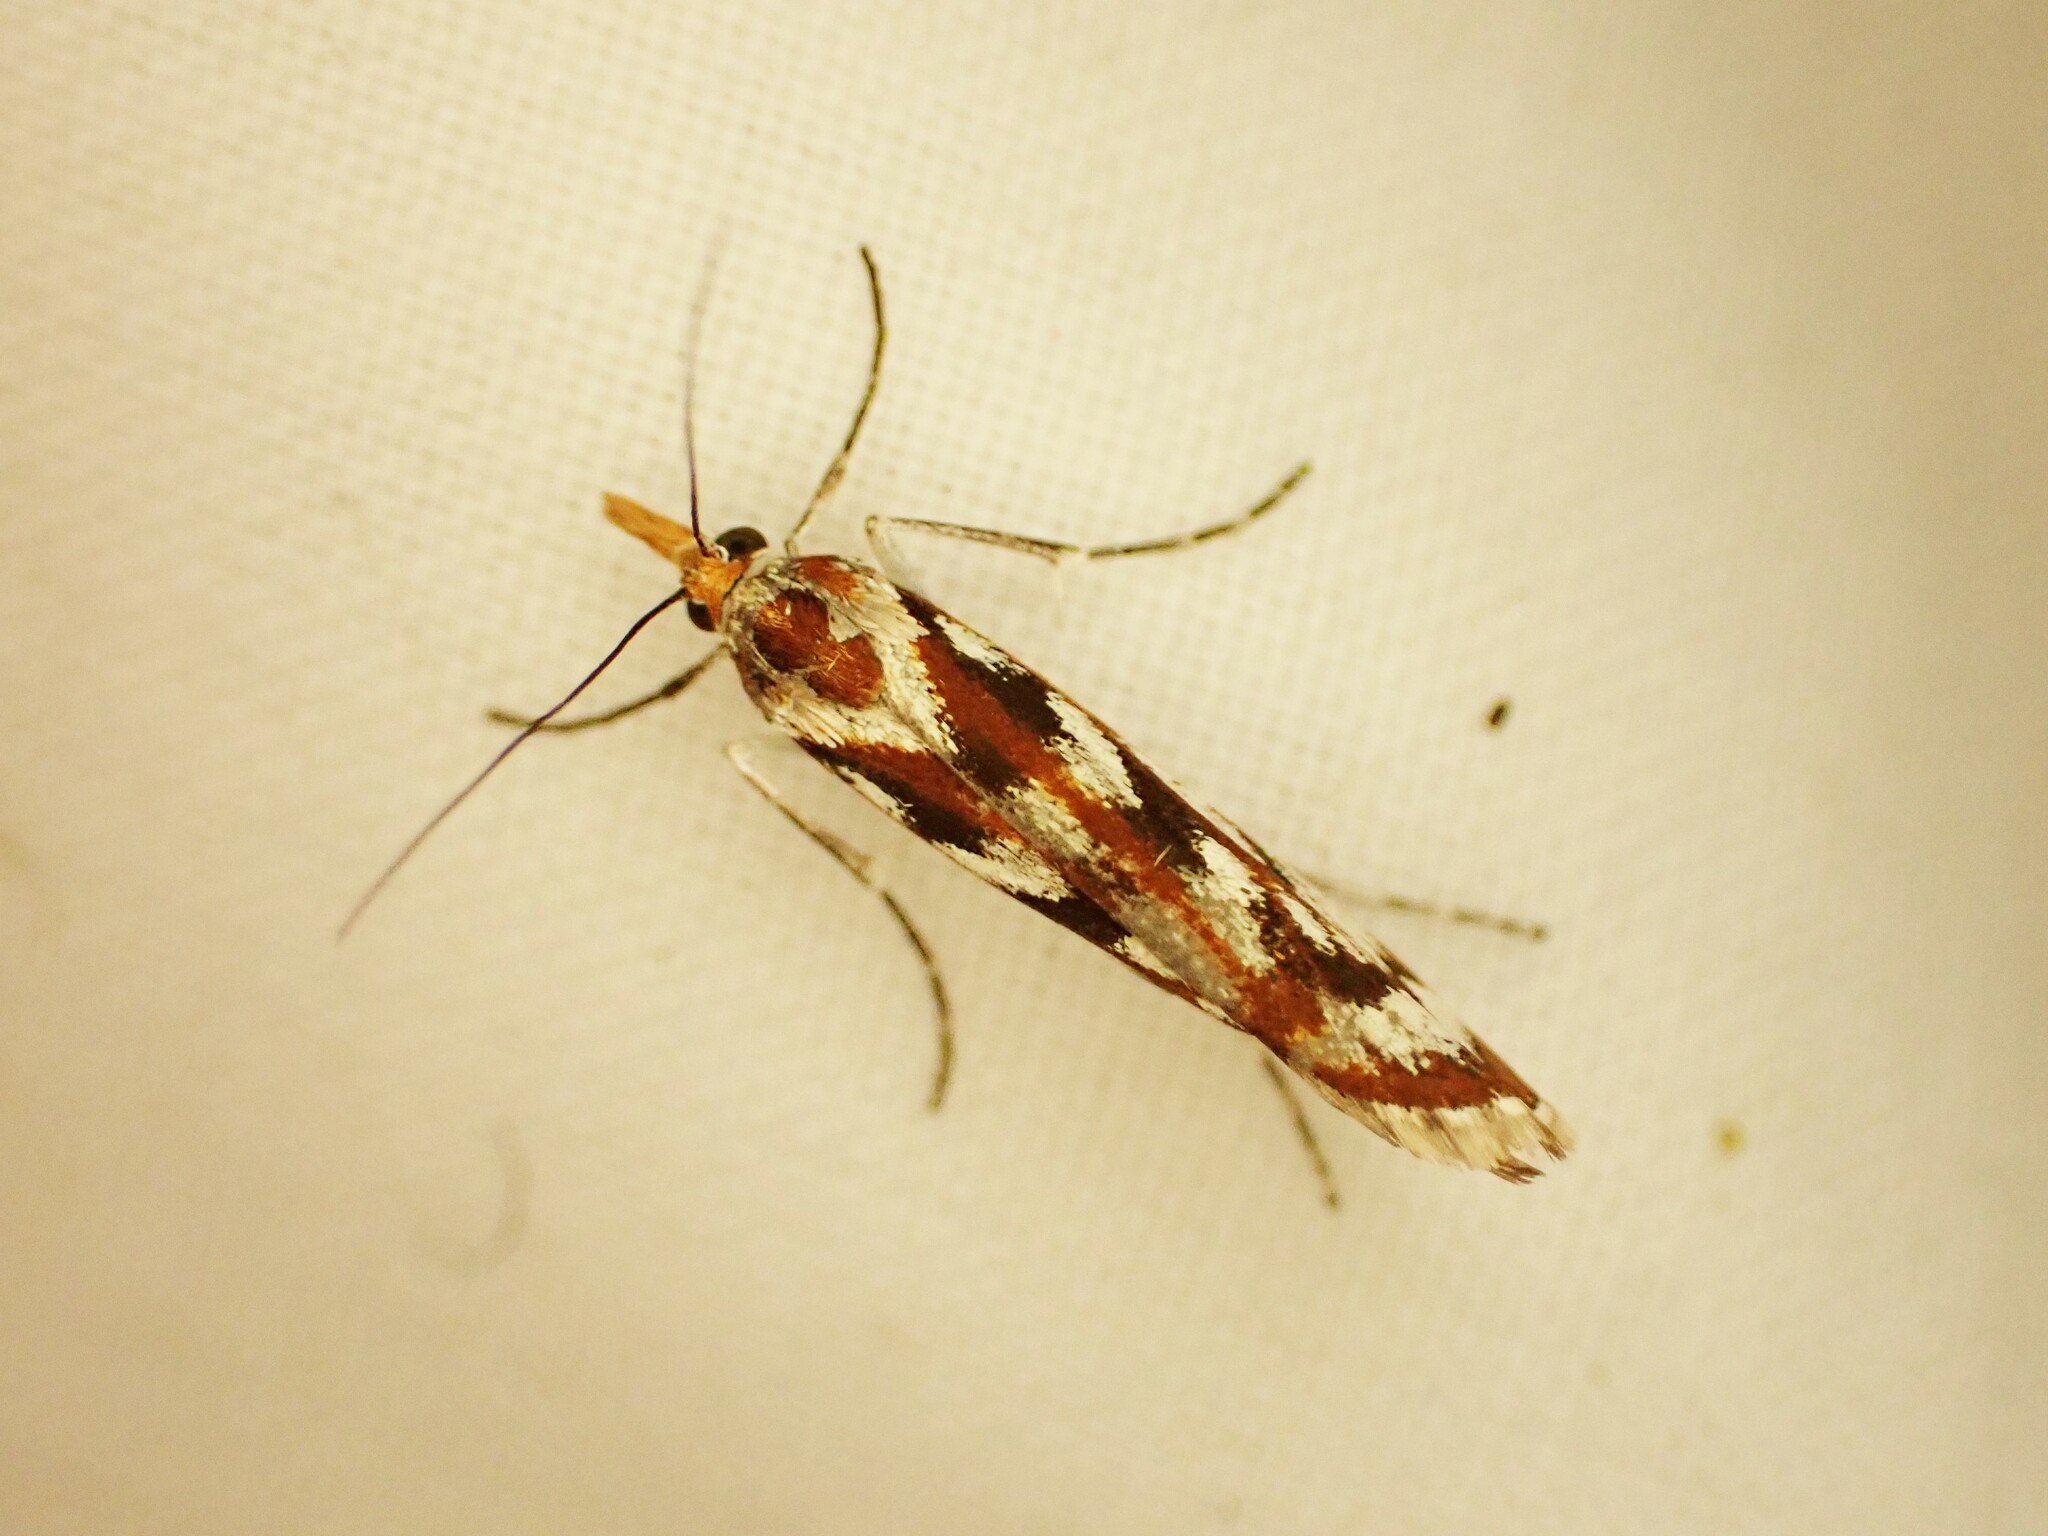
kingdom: Animalia
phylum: Arthropoda
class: Insecta
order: Lepidoptera
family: Crambidae
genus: Orocrambus
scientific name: Orocrambus xanthogrammus
